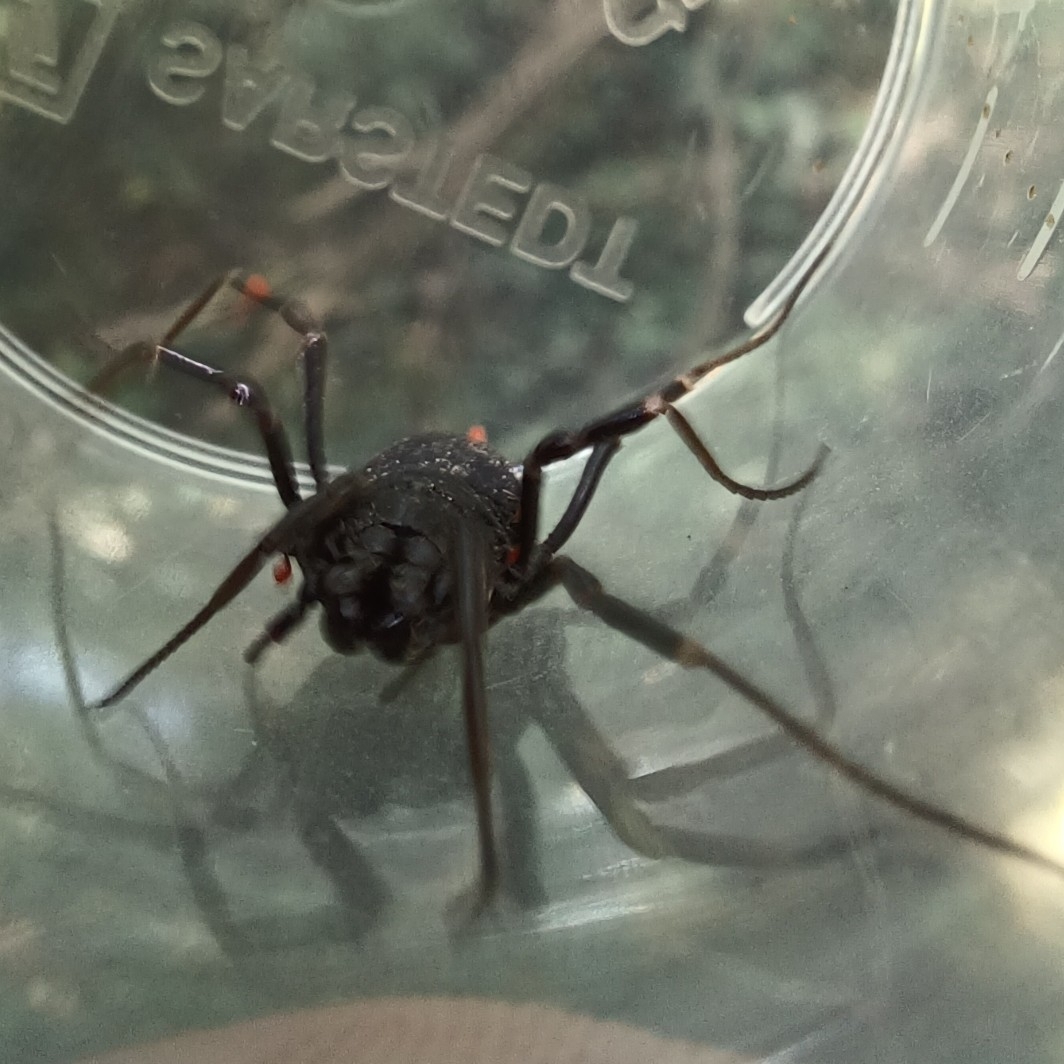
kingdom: Animalia
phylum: Arthropoda
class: Arachnida
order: Opiliones
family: Phalangiidae
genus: Egaenus
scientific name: Egaenus convexus
